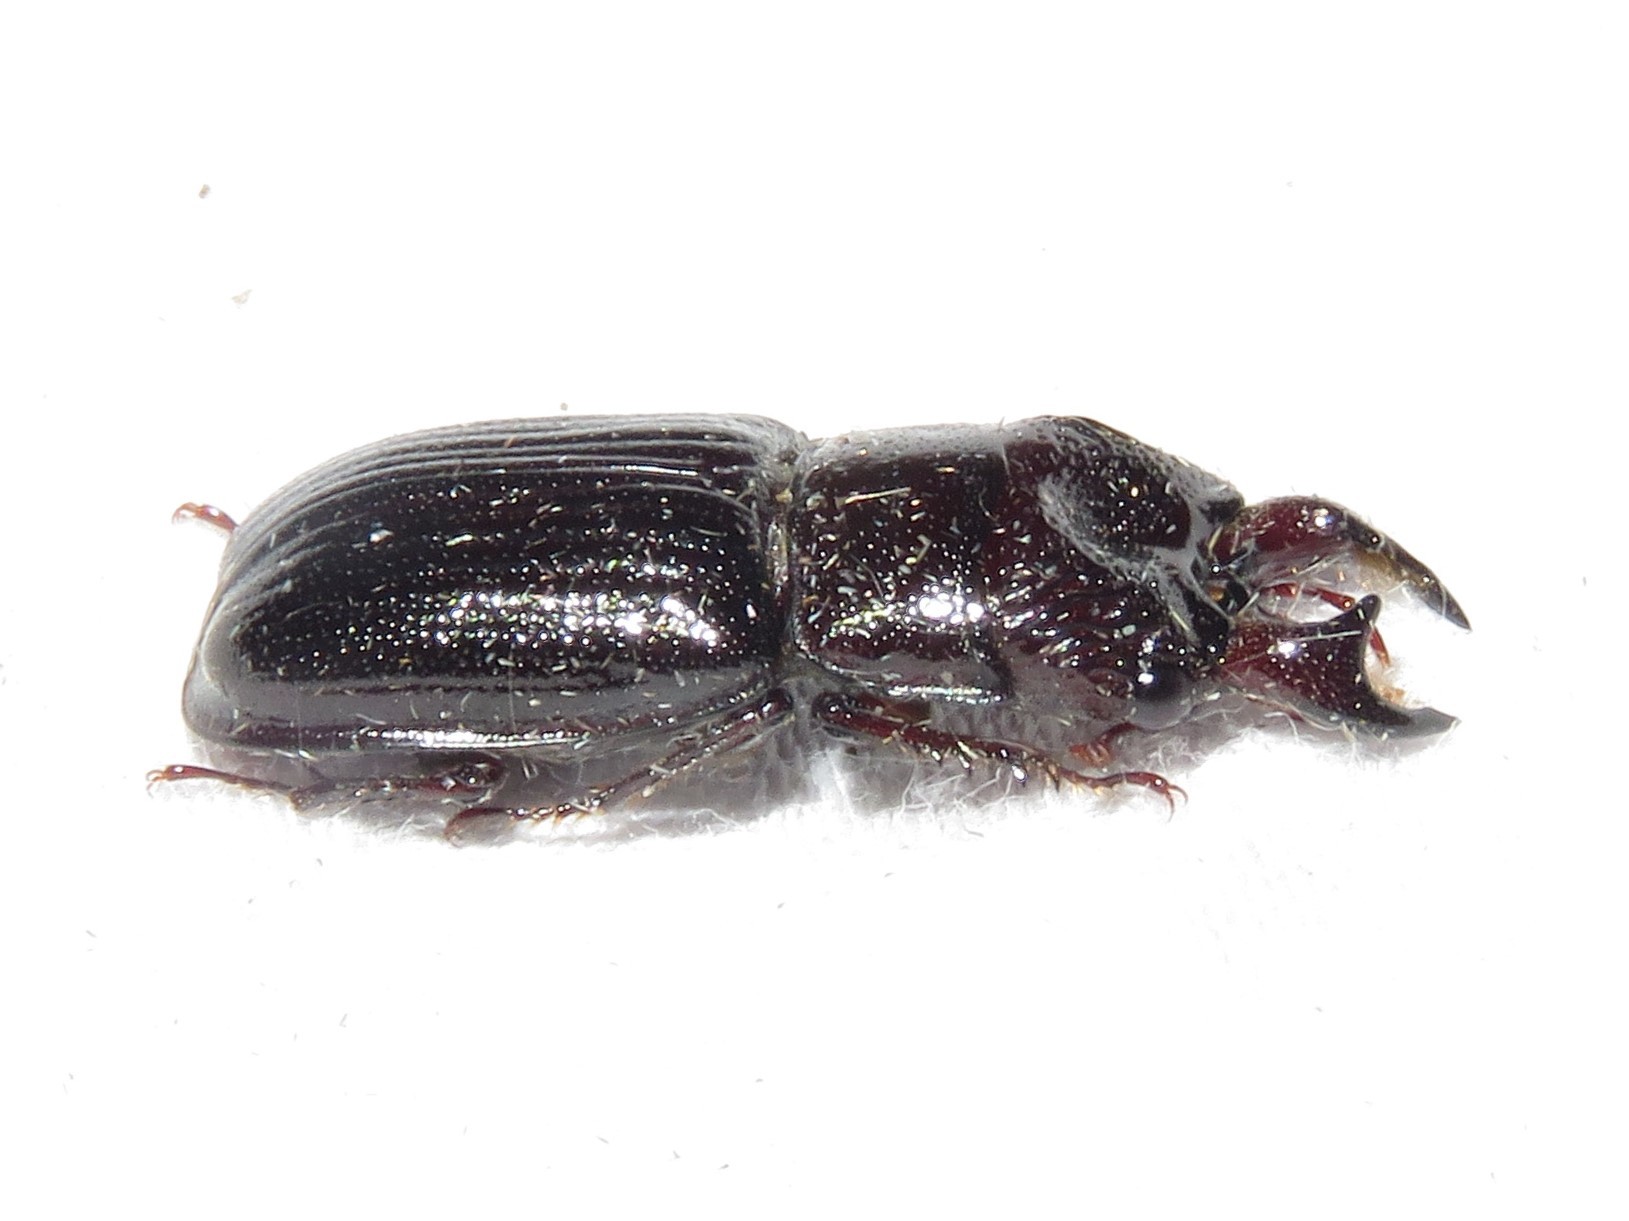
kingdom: Animalia
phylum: Arthropoda
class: Insecta
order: Coleoptera
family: Lucanidae
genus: Ceruchus
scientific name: Ceruchus piceus
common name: Red-rot decay stag beetle
